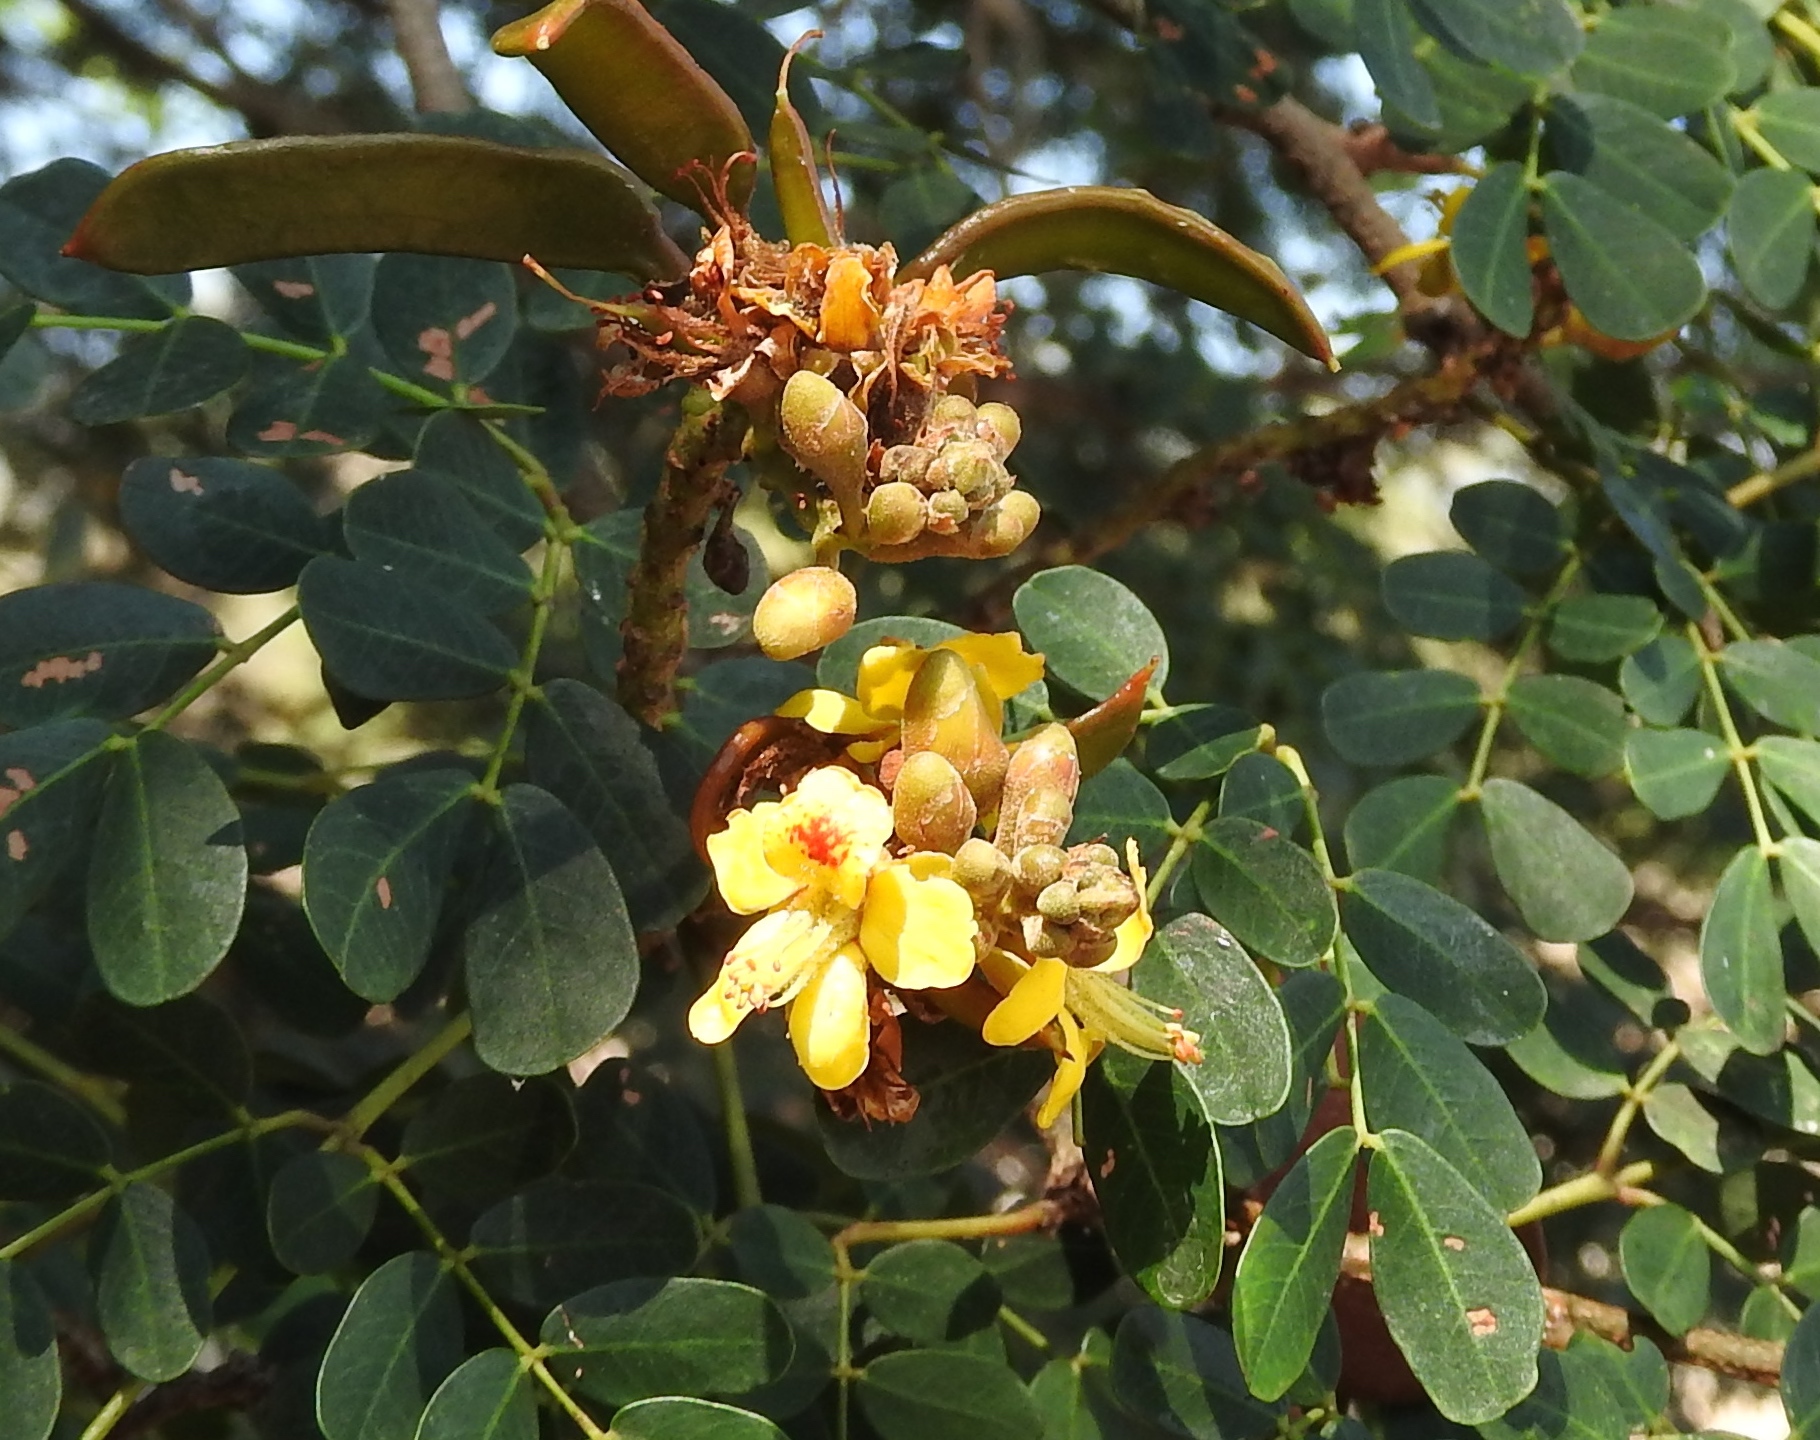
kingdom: Plantae
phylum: Tracheophyta
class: Magnoliopsida
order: Fabales
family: Fabaceae
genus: Libidibia
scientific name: Libidibia sclerocarpa
